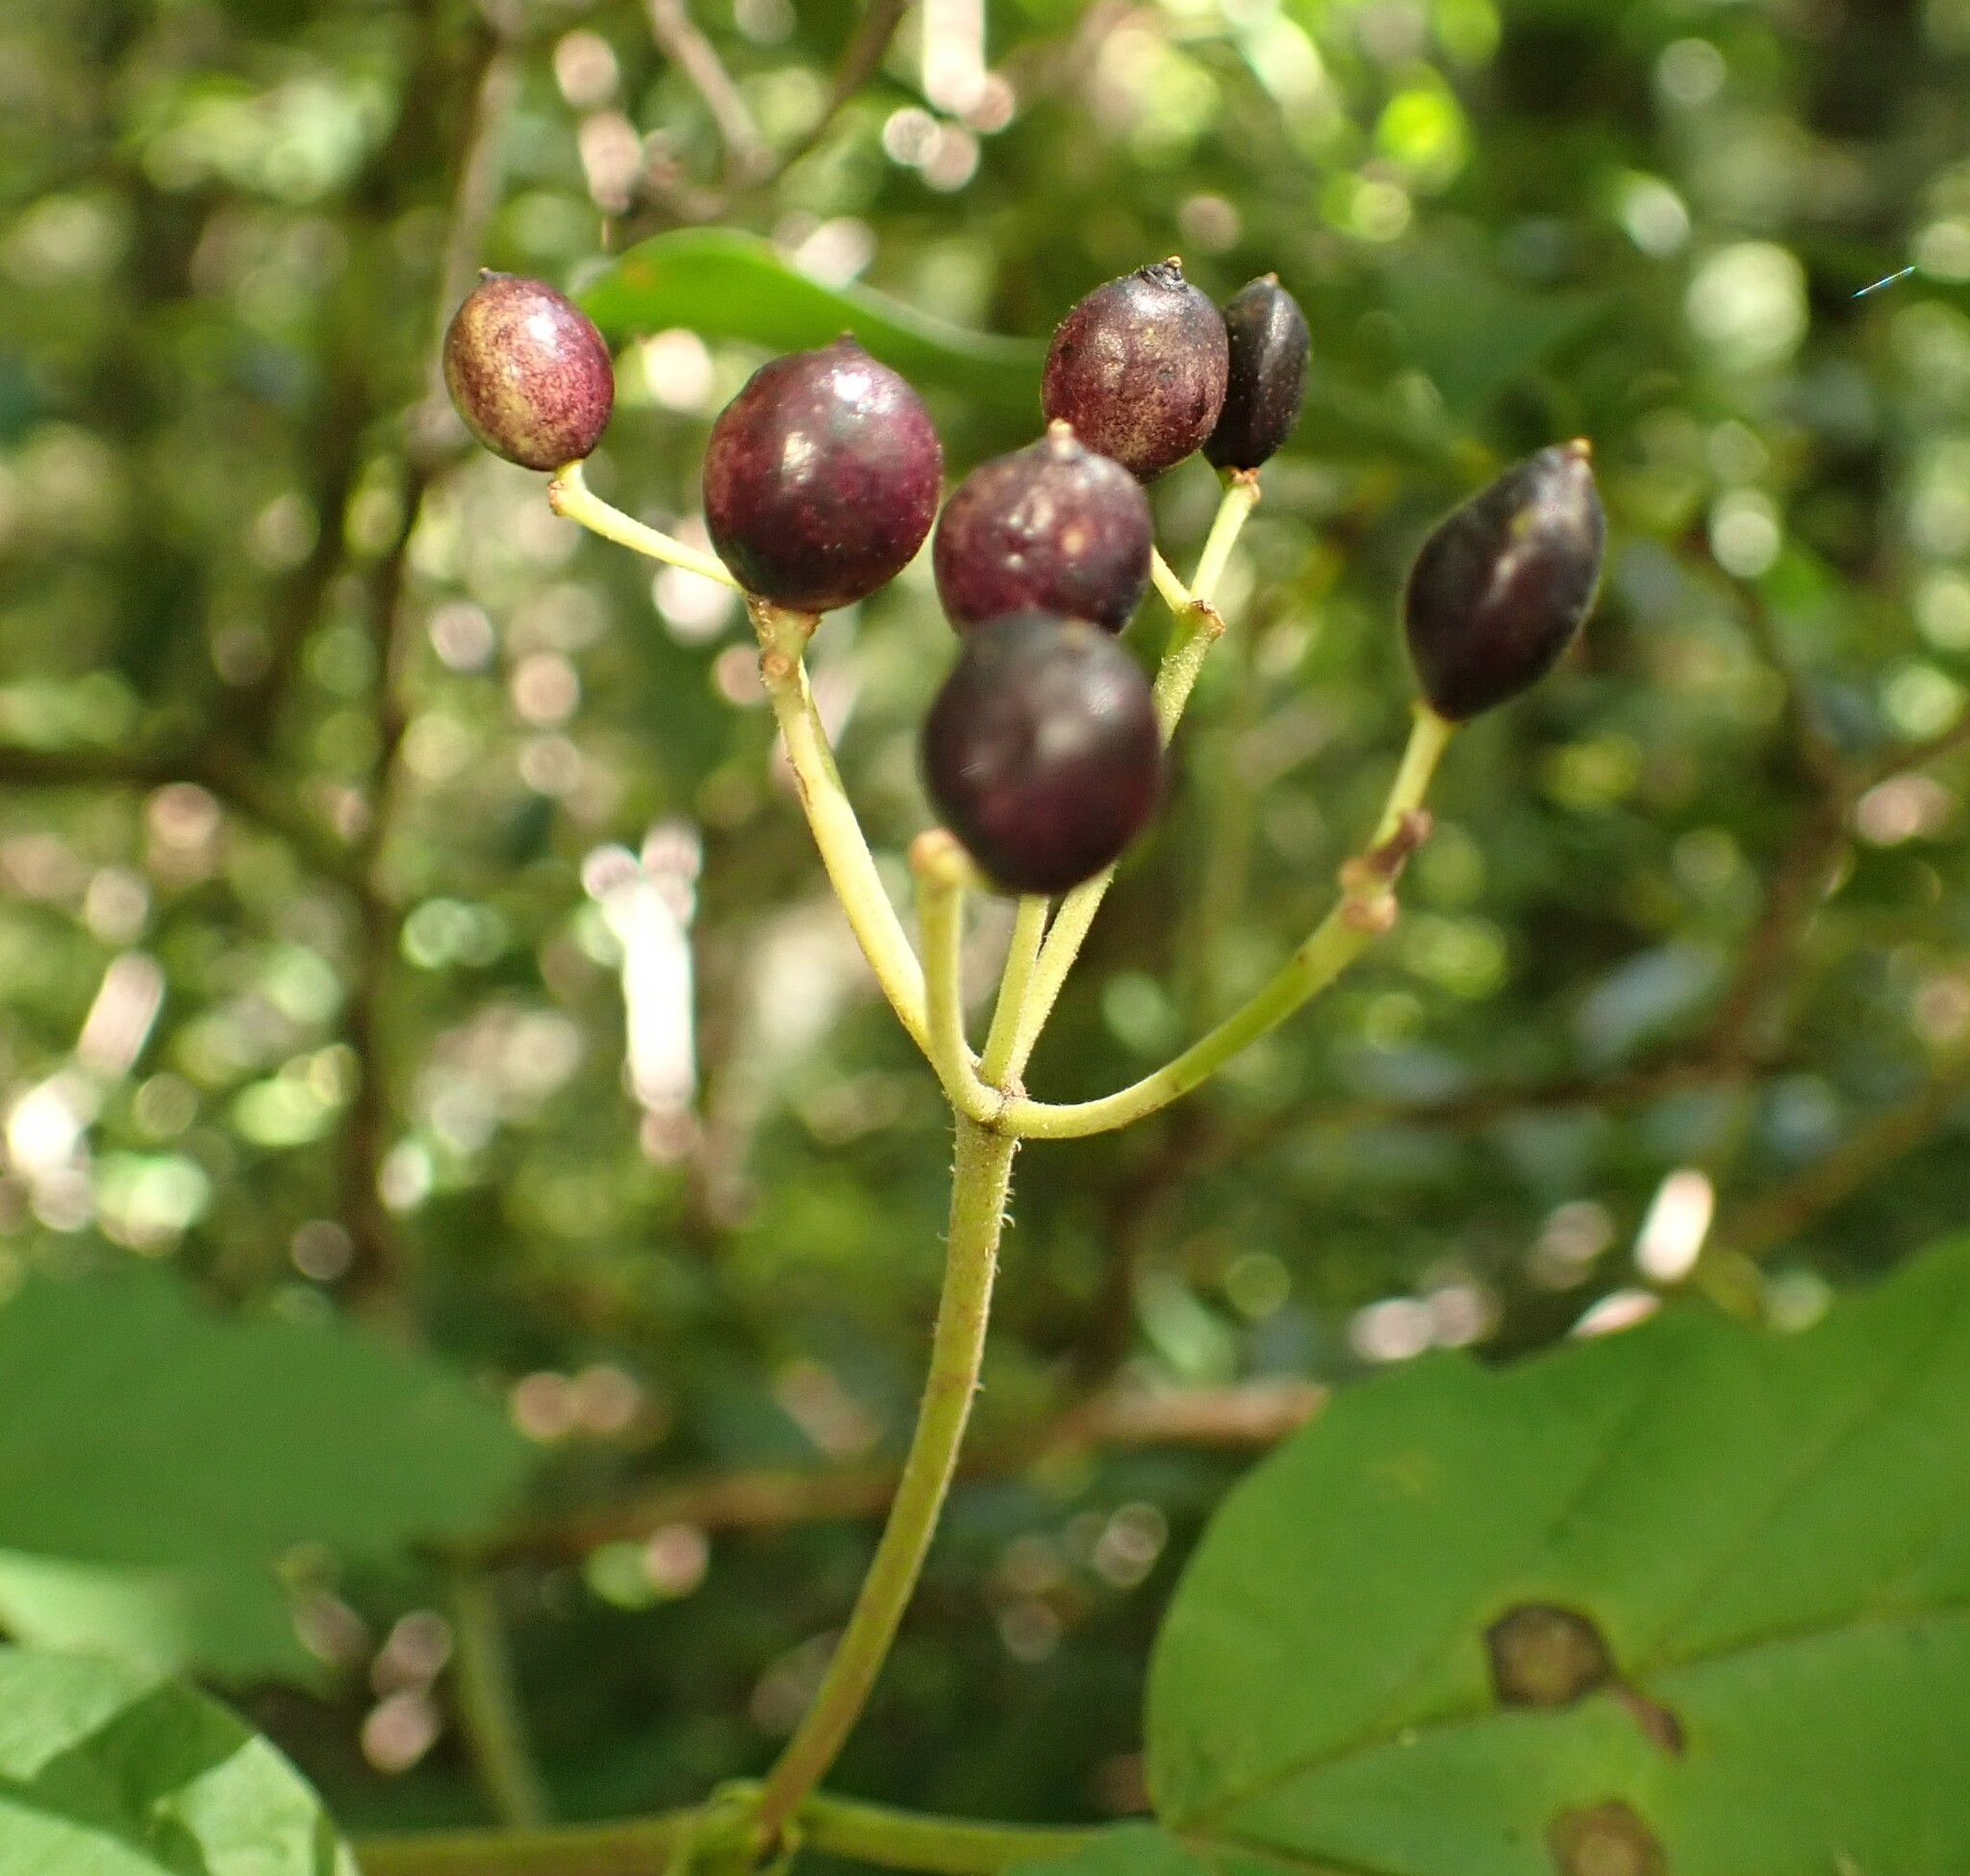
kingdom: Plantae
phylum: Tracheophyta
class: Magnoliopsida
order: Dipsacales
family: Viburnaceae
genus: Viburnum
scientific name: Viburnum acerifolium
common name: Dockmackie
